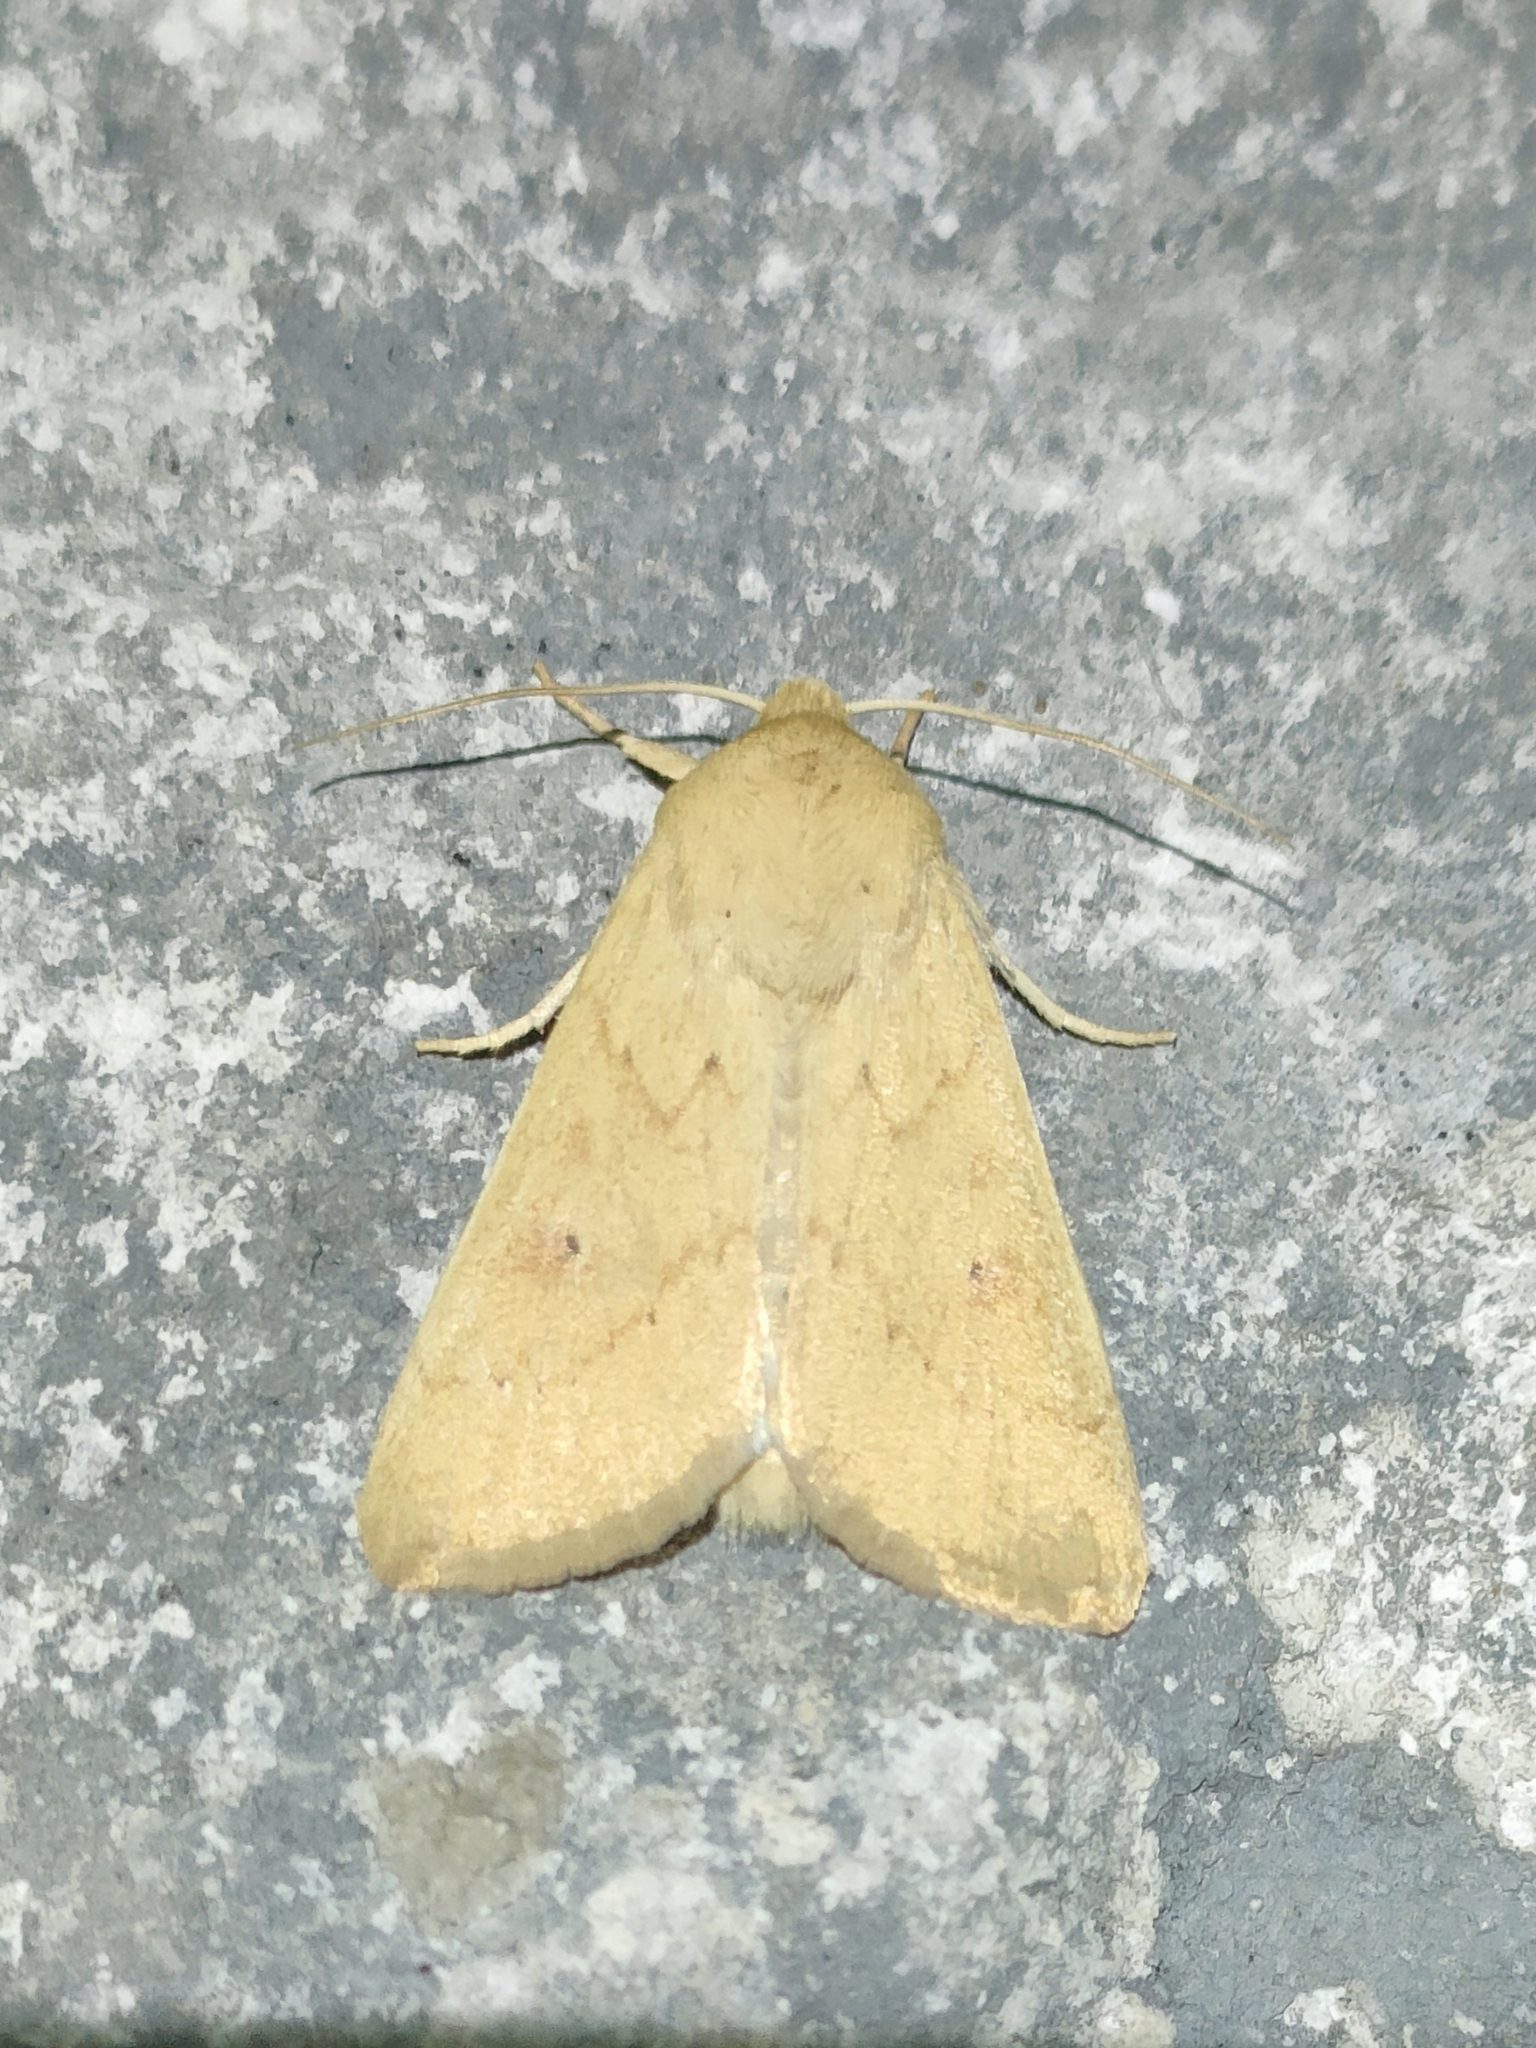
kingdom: Animalia
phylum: Arthropoda
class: Insecta
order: Lepidoptera
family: Noctuidae
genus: Mythimna
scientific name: Mythimna vitellina
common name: Delicate
